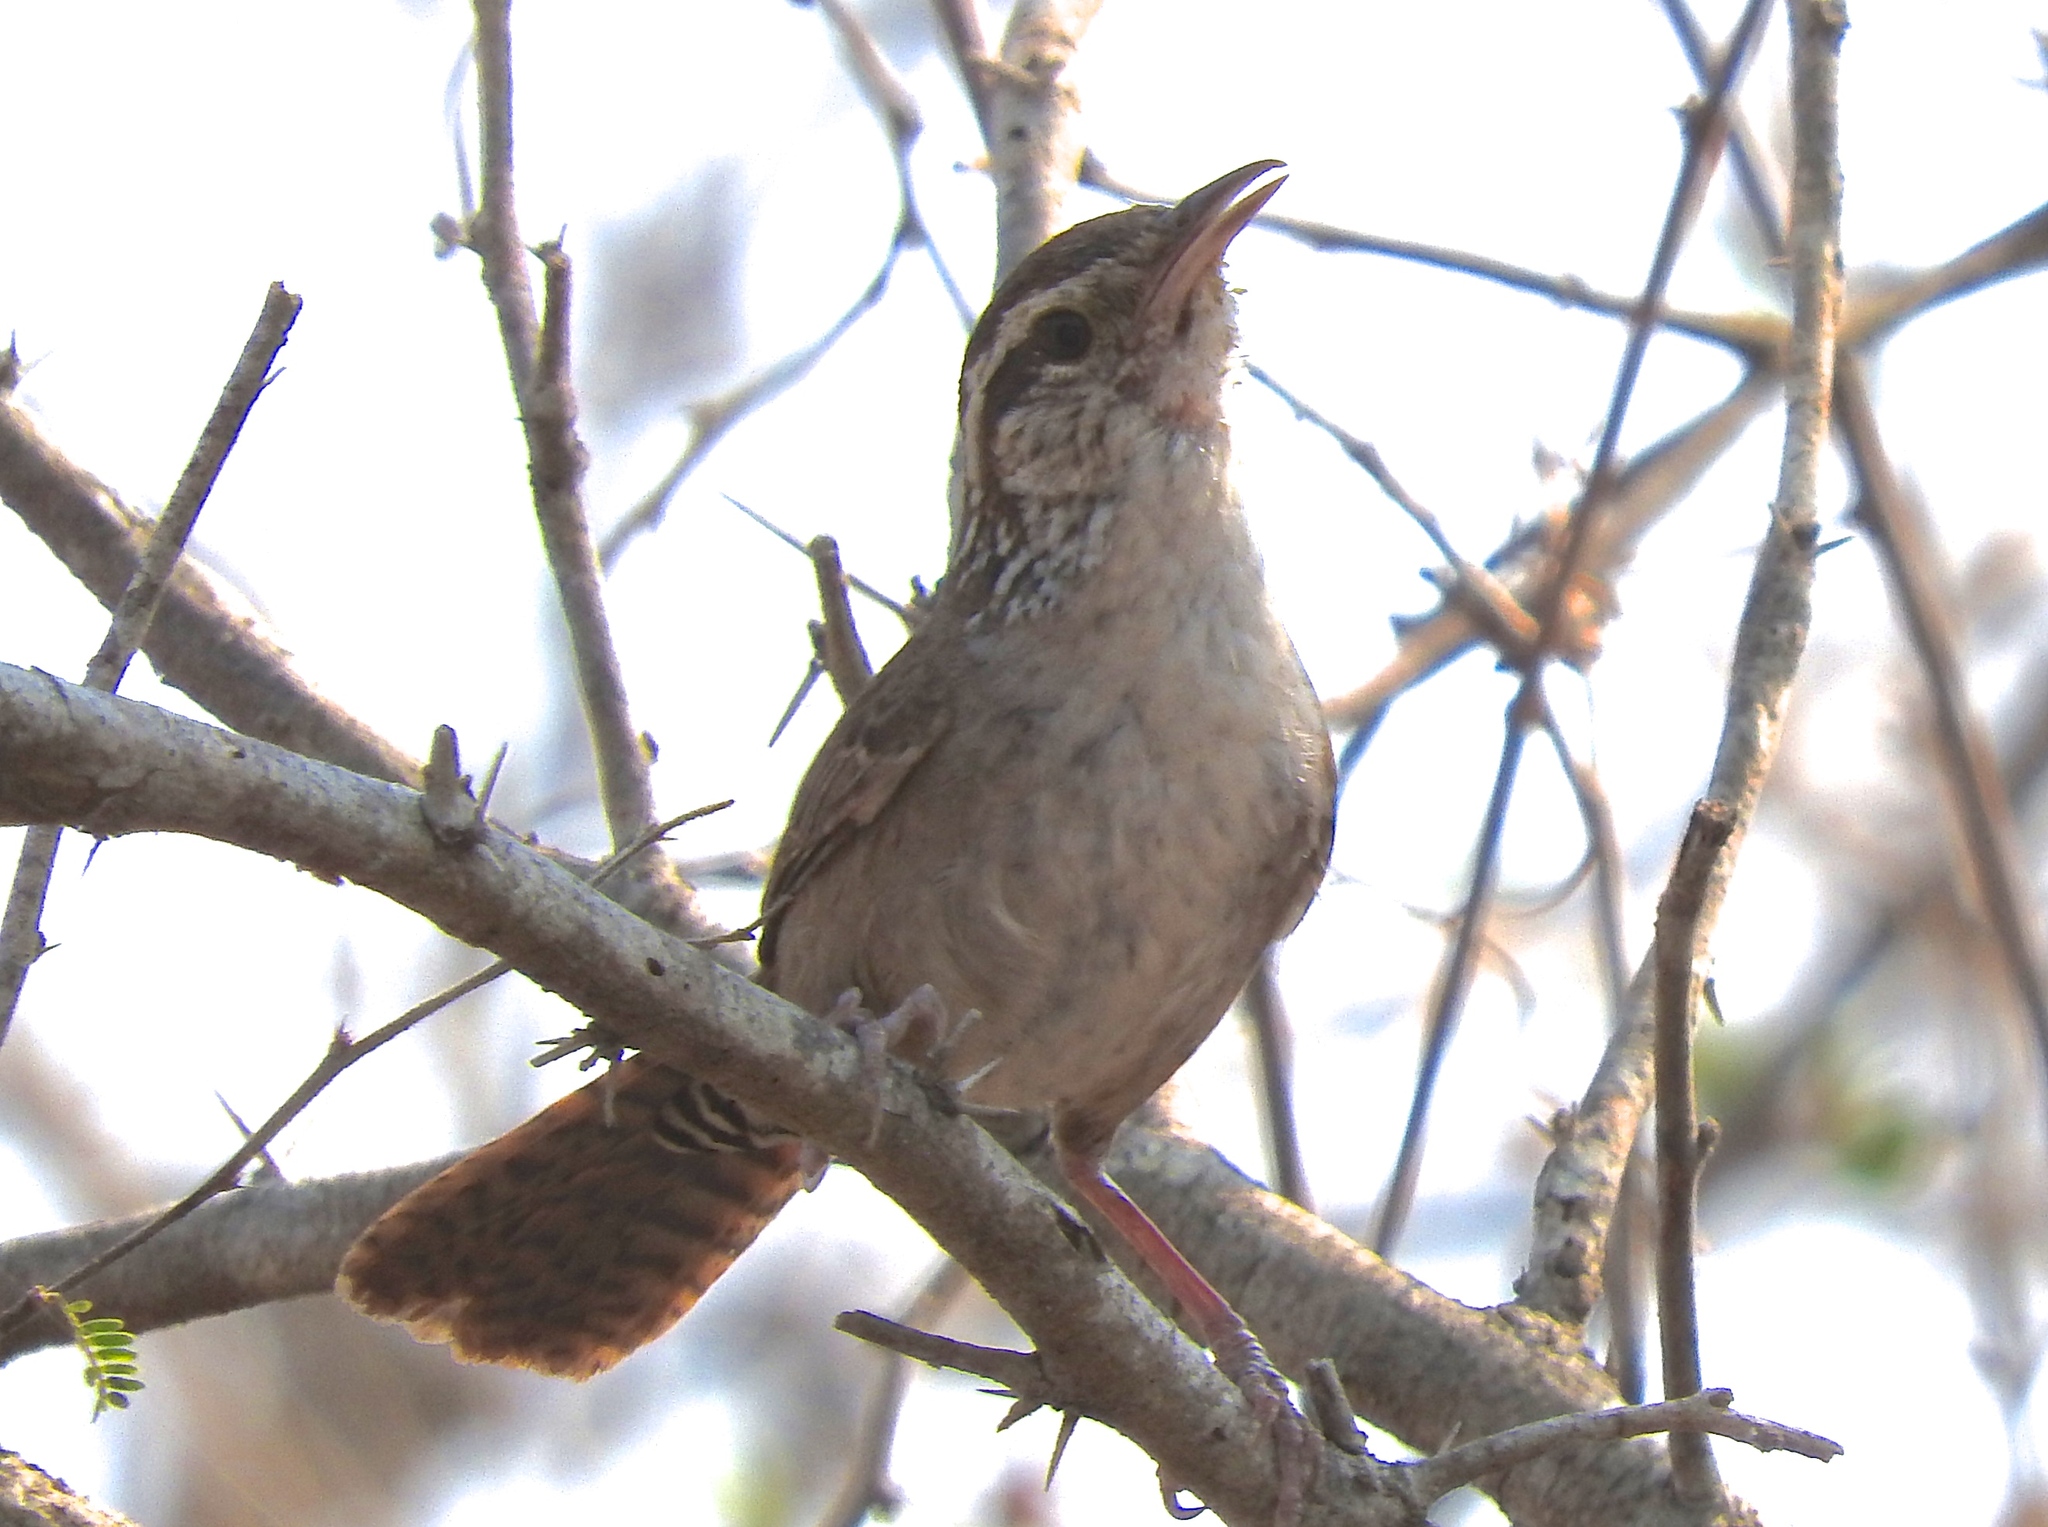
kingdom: Animalia
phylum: Chordata
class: Aves
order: Passeriformes
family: Troglodytidae
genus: Thryophilus
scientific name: Thryophilus sinaloa
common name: Sinaloa wren
